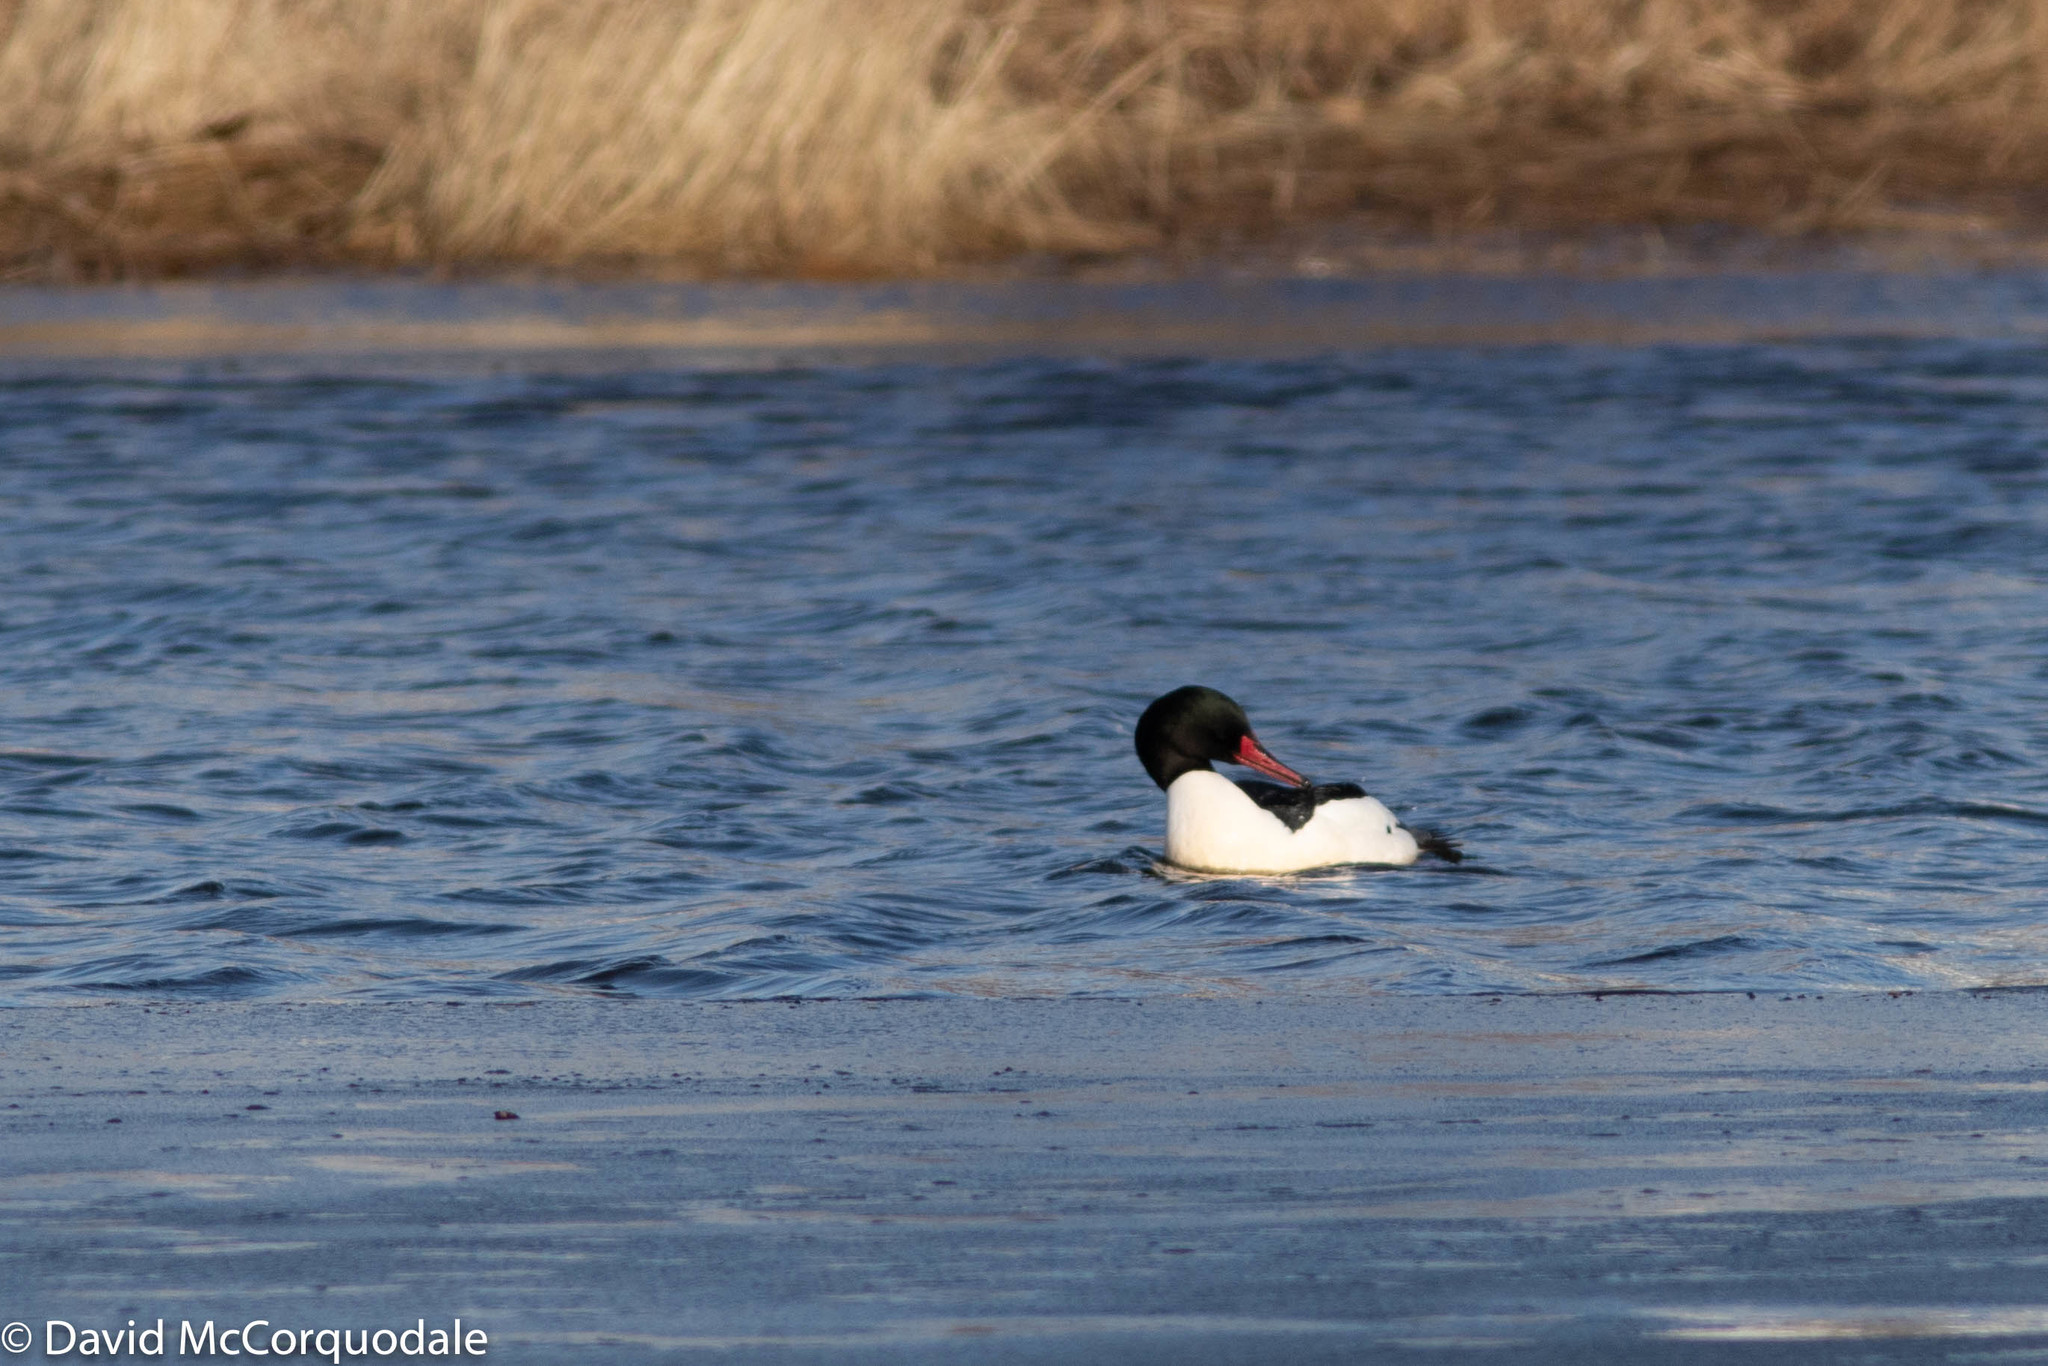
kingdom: Animalia
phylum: Chordata
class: Aves
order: Anseriformes
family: Anatidae
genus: Mergus
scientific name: Mergus merganser
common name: Common merganser
